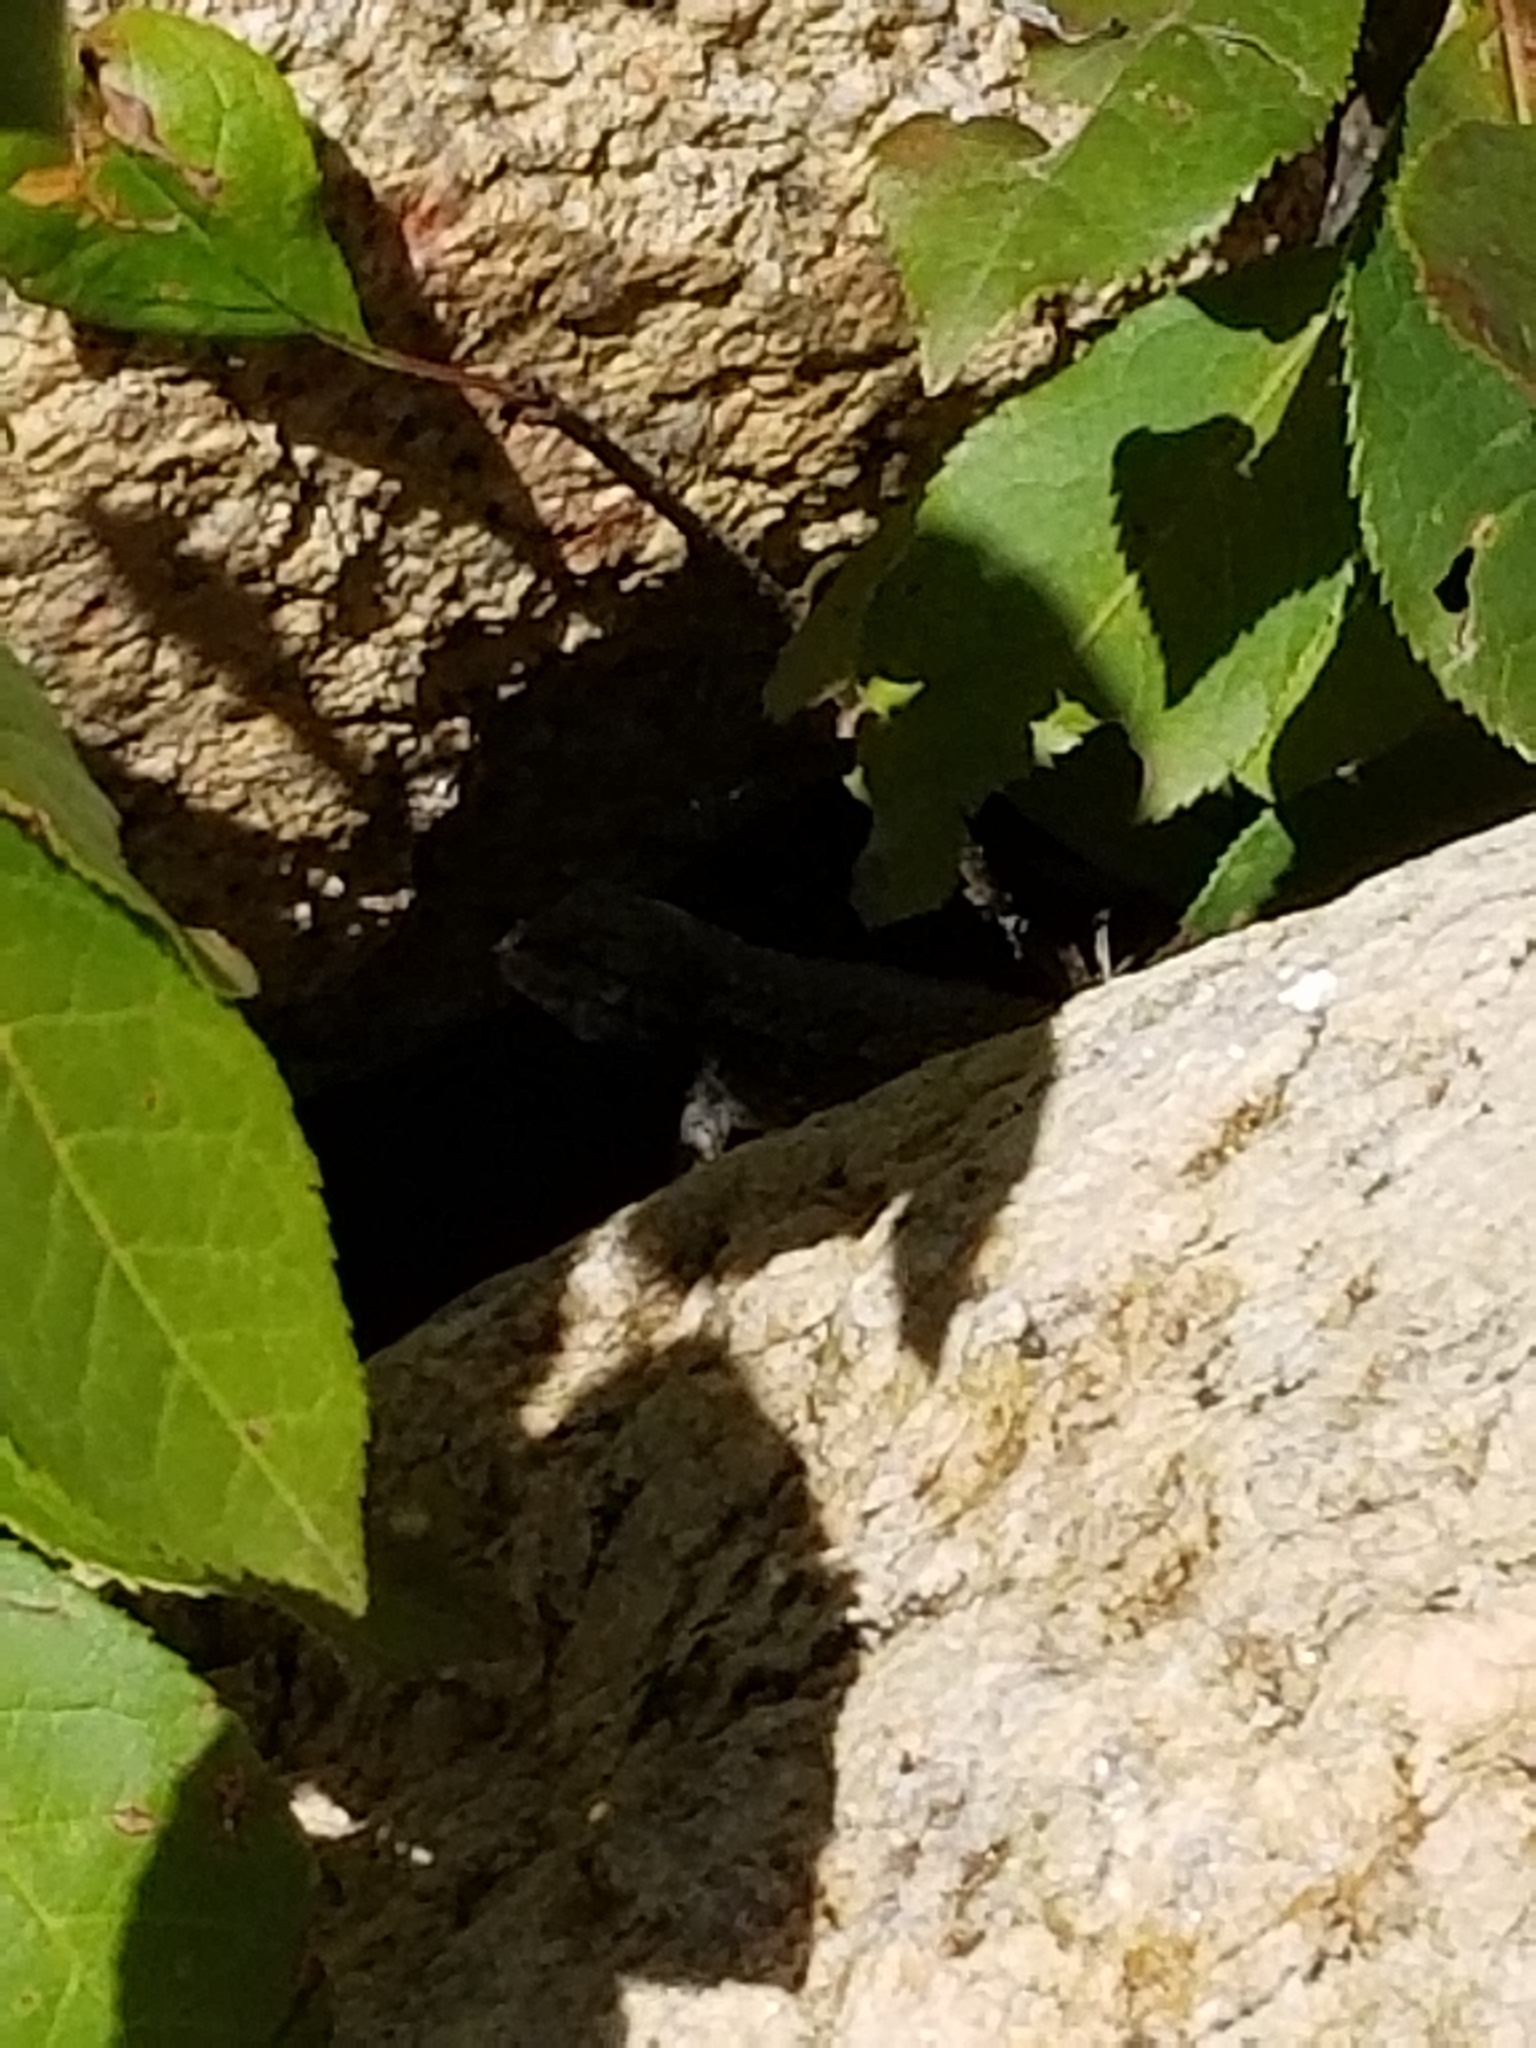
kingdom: Animalia
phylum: Chordata
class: Squamata
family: Phrynosomatidae
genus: Sceloporus
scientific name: Sceloporus consobrinus
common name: Southern prairie lizard
